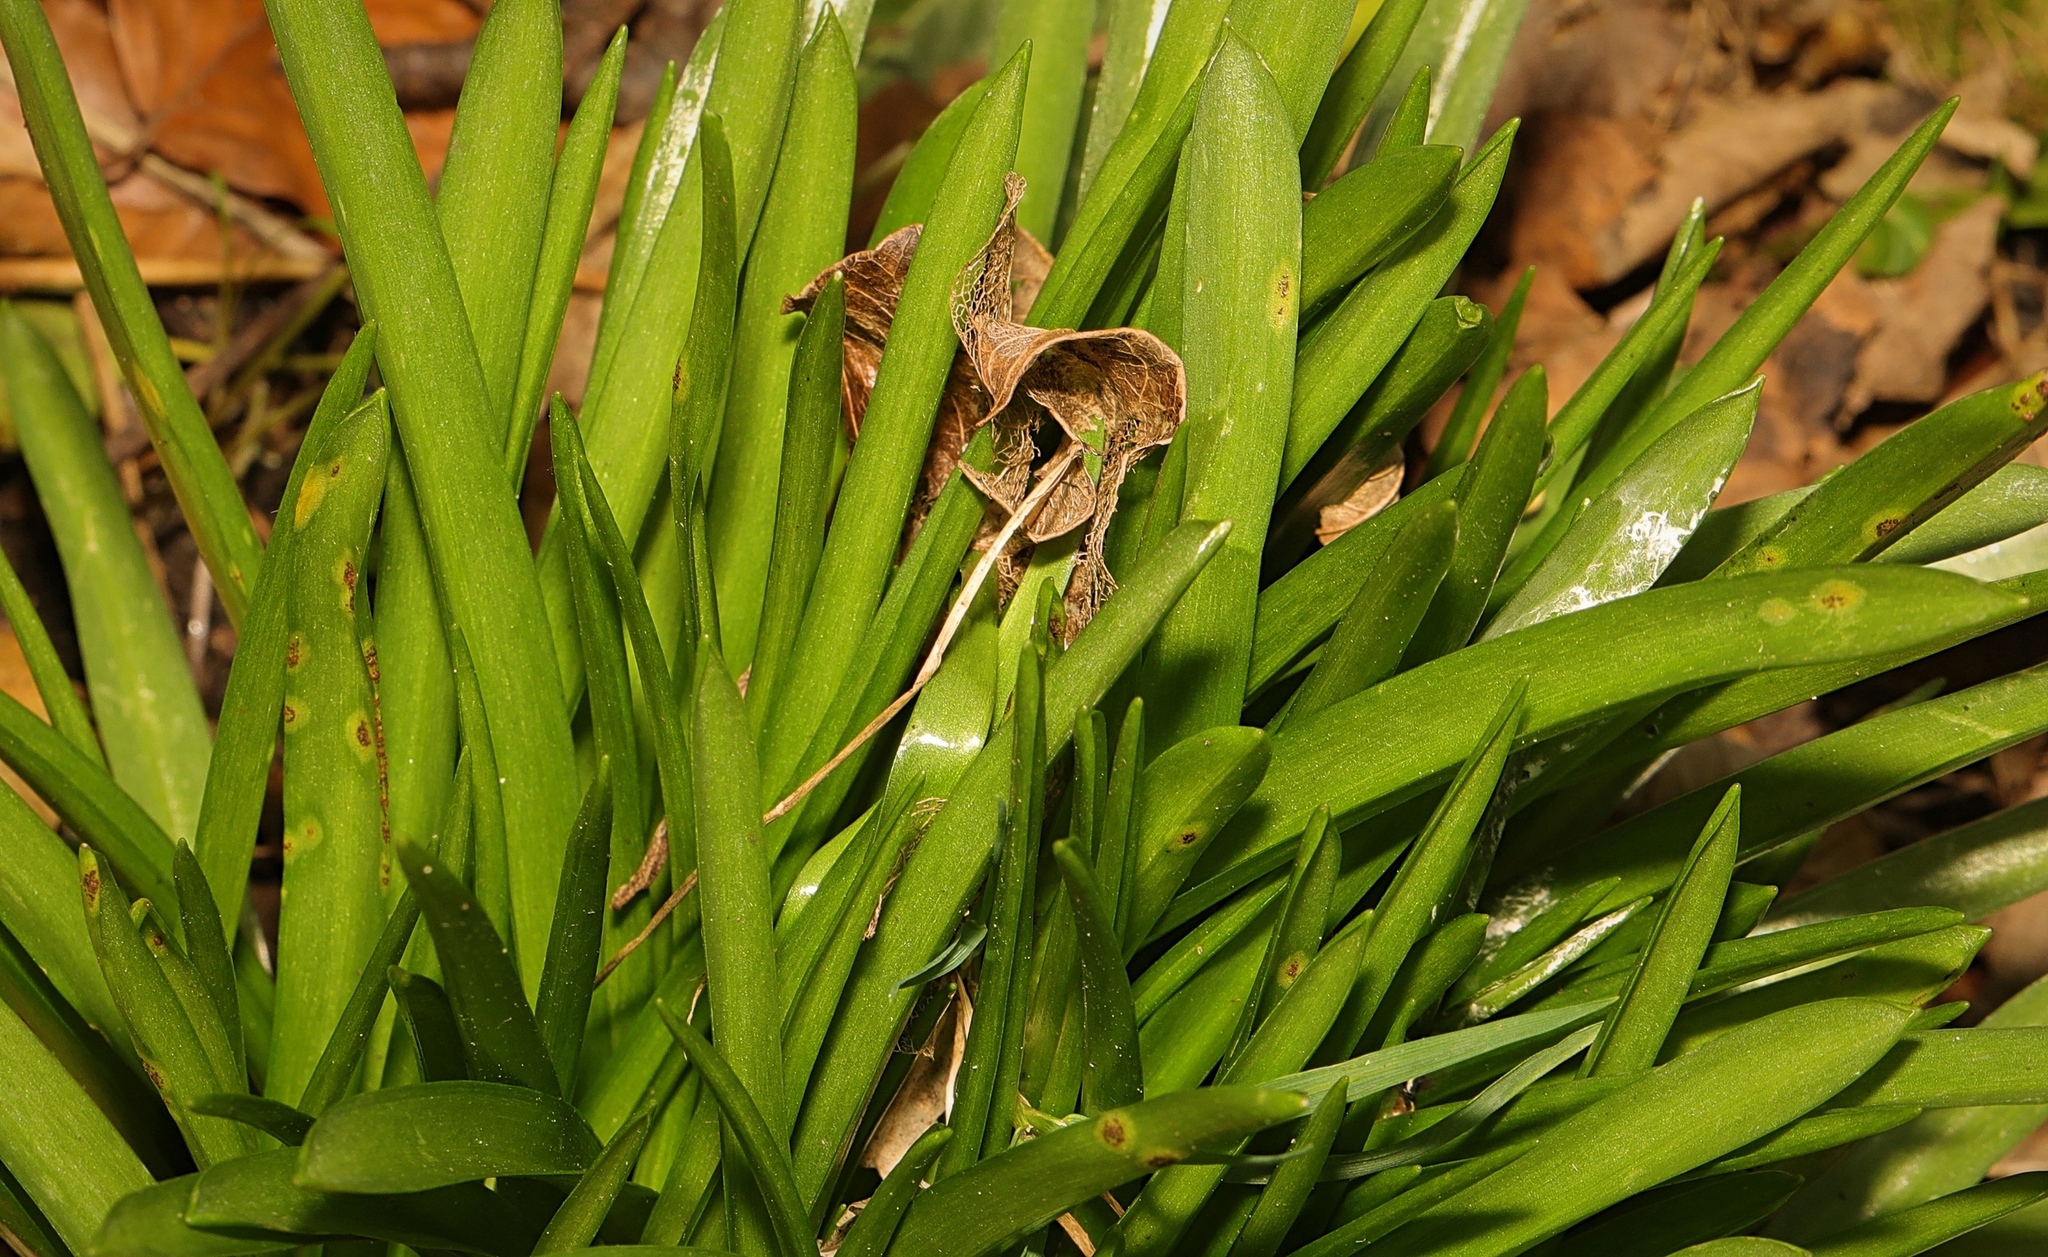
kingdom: Fungi
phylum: Basidiomycota
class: Pucciniomycetes
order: Pucciniales
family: Pucciniaceae
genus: Uromyces
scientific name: Uromyces hyacinthi
